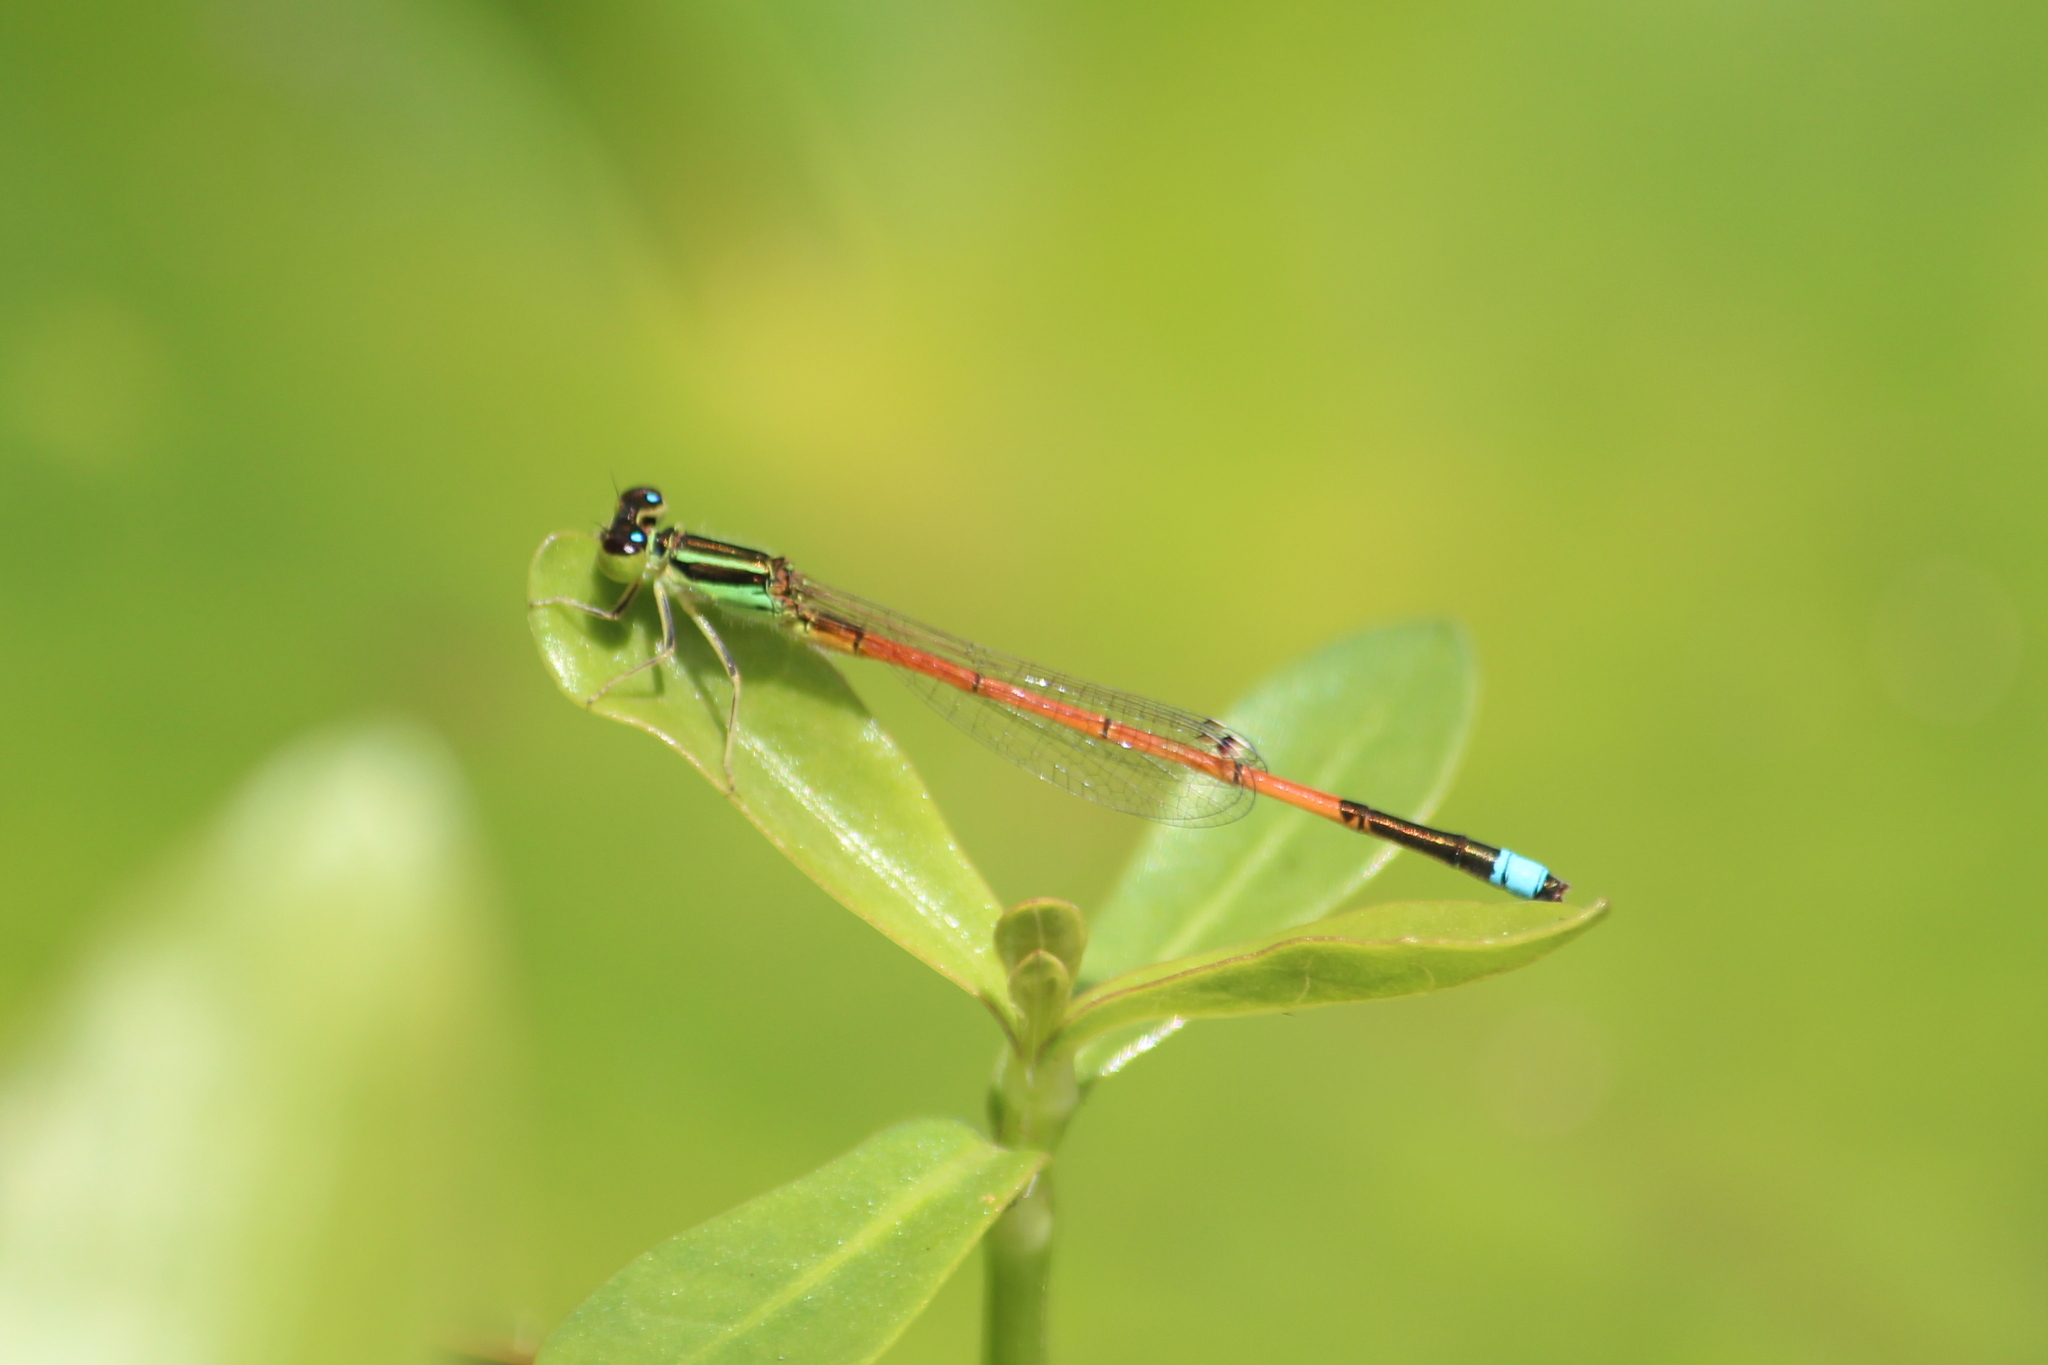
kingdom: Animalia
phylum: Arthropoda
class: Insecta
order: Odonata
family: Coenagrionidae
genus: Ischnura
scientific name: Ischnura aurora
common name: Gossamer damselfly
